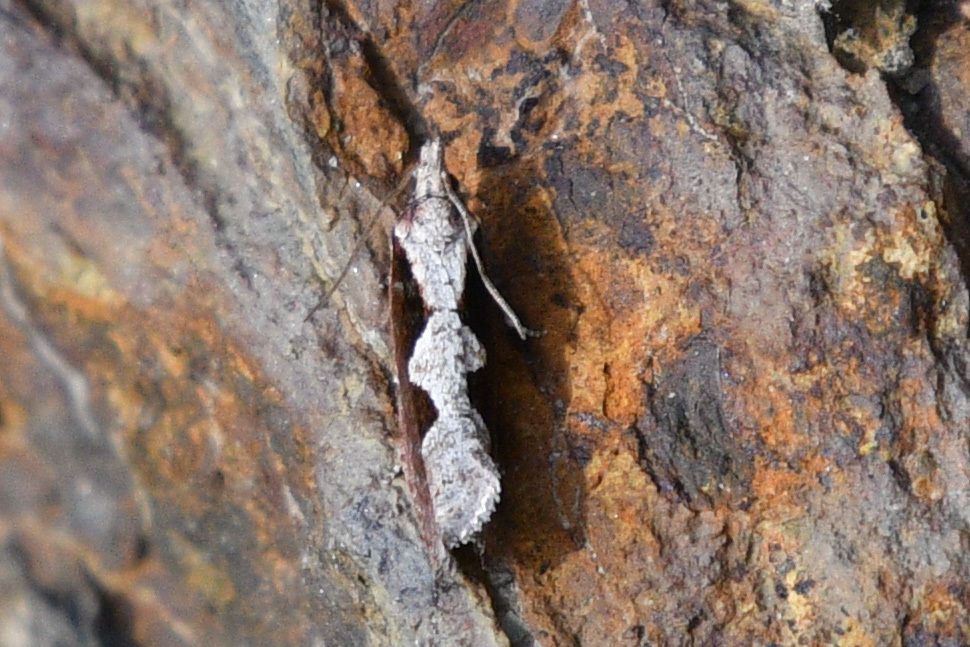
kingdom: Animalia
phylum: Arthropoda
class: Insecta
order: Lepidoptera
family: Tortricidae
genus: Epinotia
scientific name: Epinotia lindana
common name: Diamondback epinotia moth
